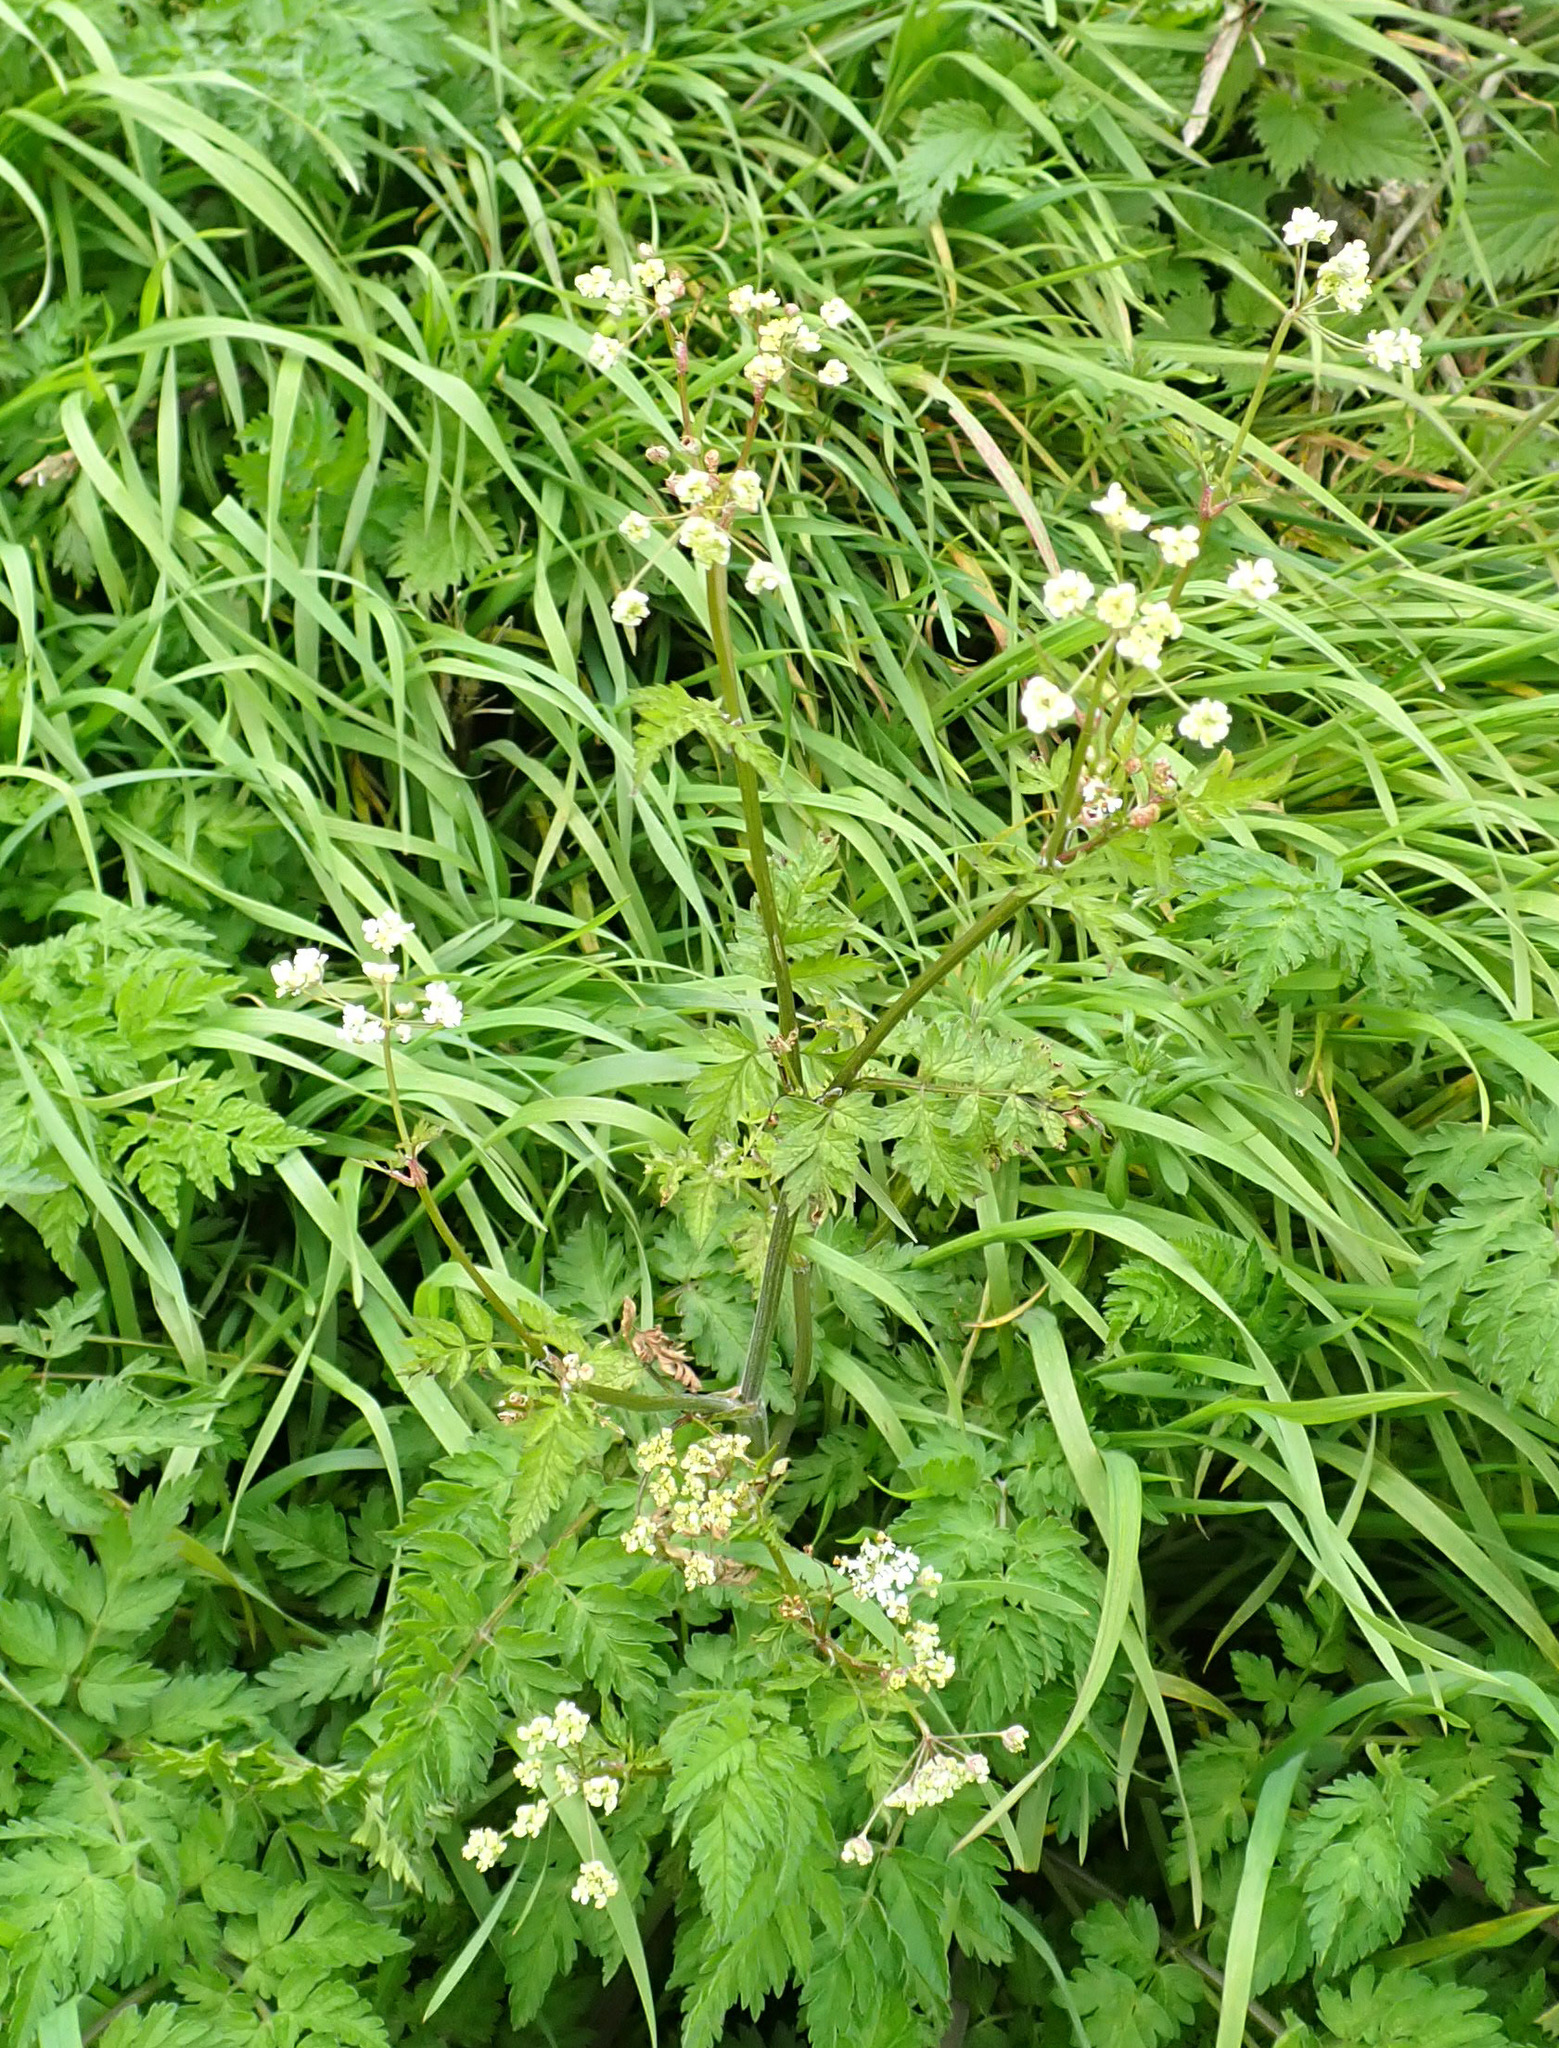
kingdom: Plantae
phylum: Tracheophyta
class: Magnoliopsida
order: Apiales
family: Apiaceae
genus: Anthriscus
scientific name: Anthriscus sylvestris
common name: Cow parsley
